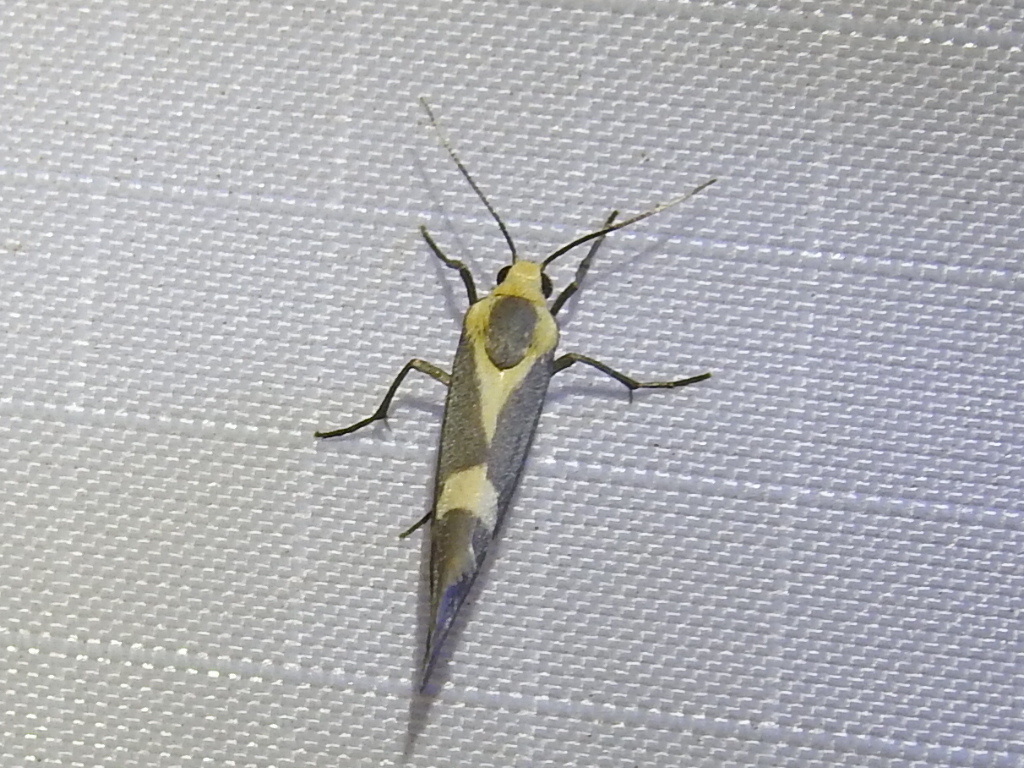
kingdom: Animalia
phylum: Arthropoda
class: Insecta
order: Lepidoptera
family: Erebidae
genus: Cisthene
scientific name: Cisthene tenuifascia
